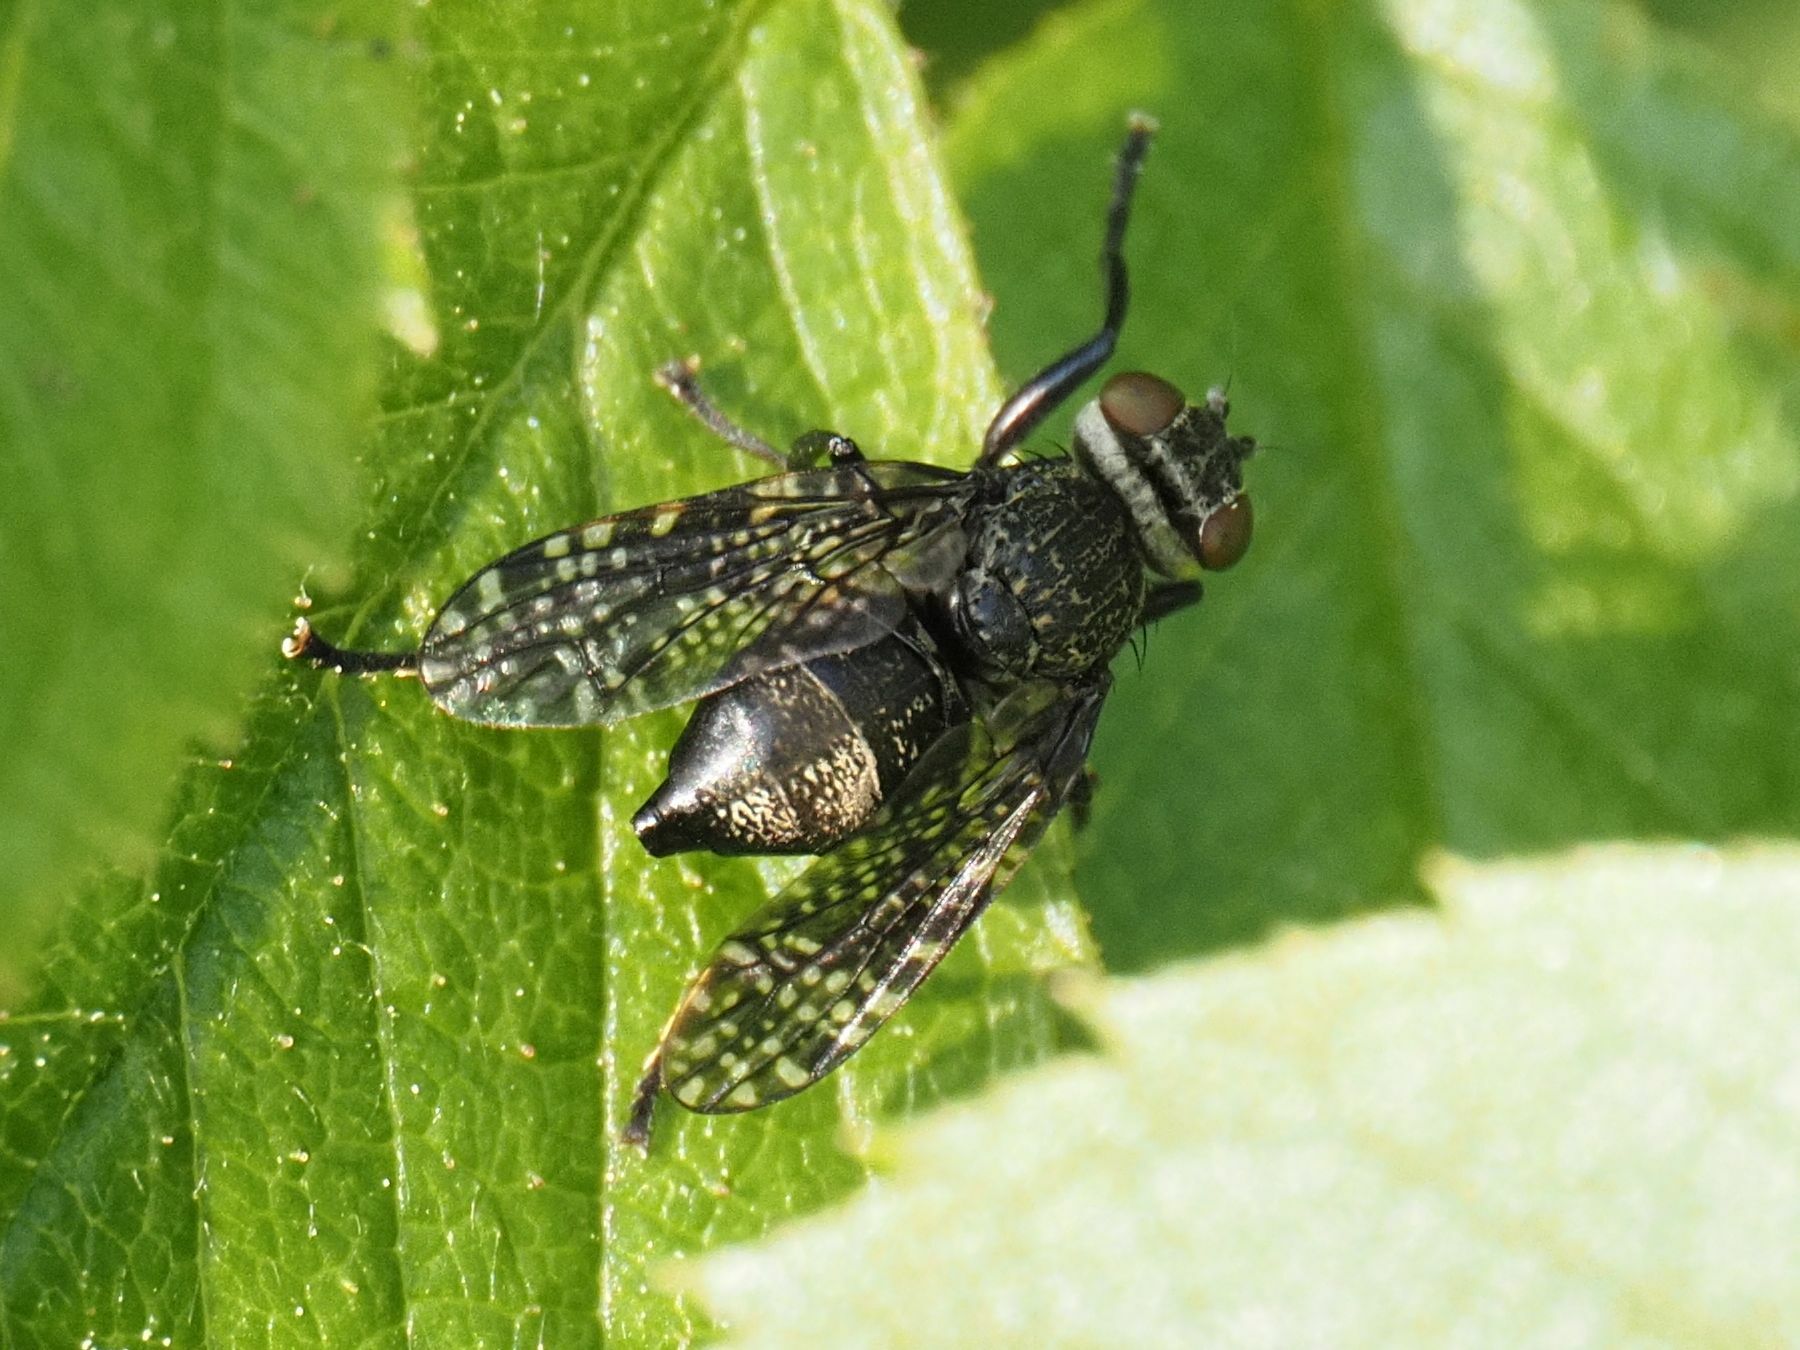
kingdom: Animalia
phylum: Arthropoda
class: Insecta
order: Diptera
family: Platystomatidae
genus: Platystoma
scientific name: Platystoma seminationis
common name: Fly
